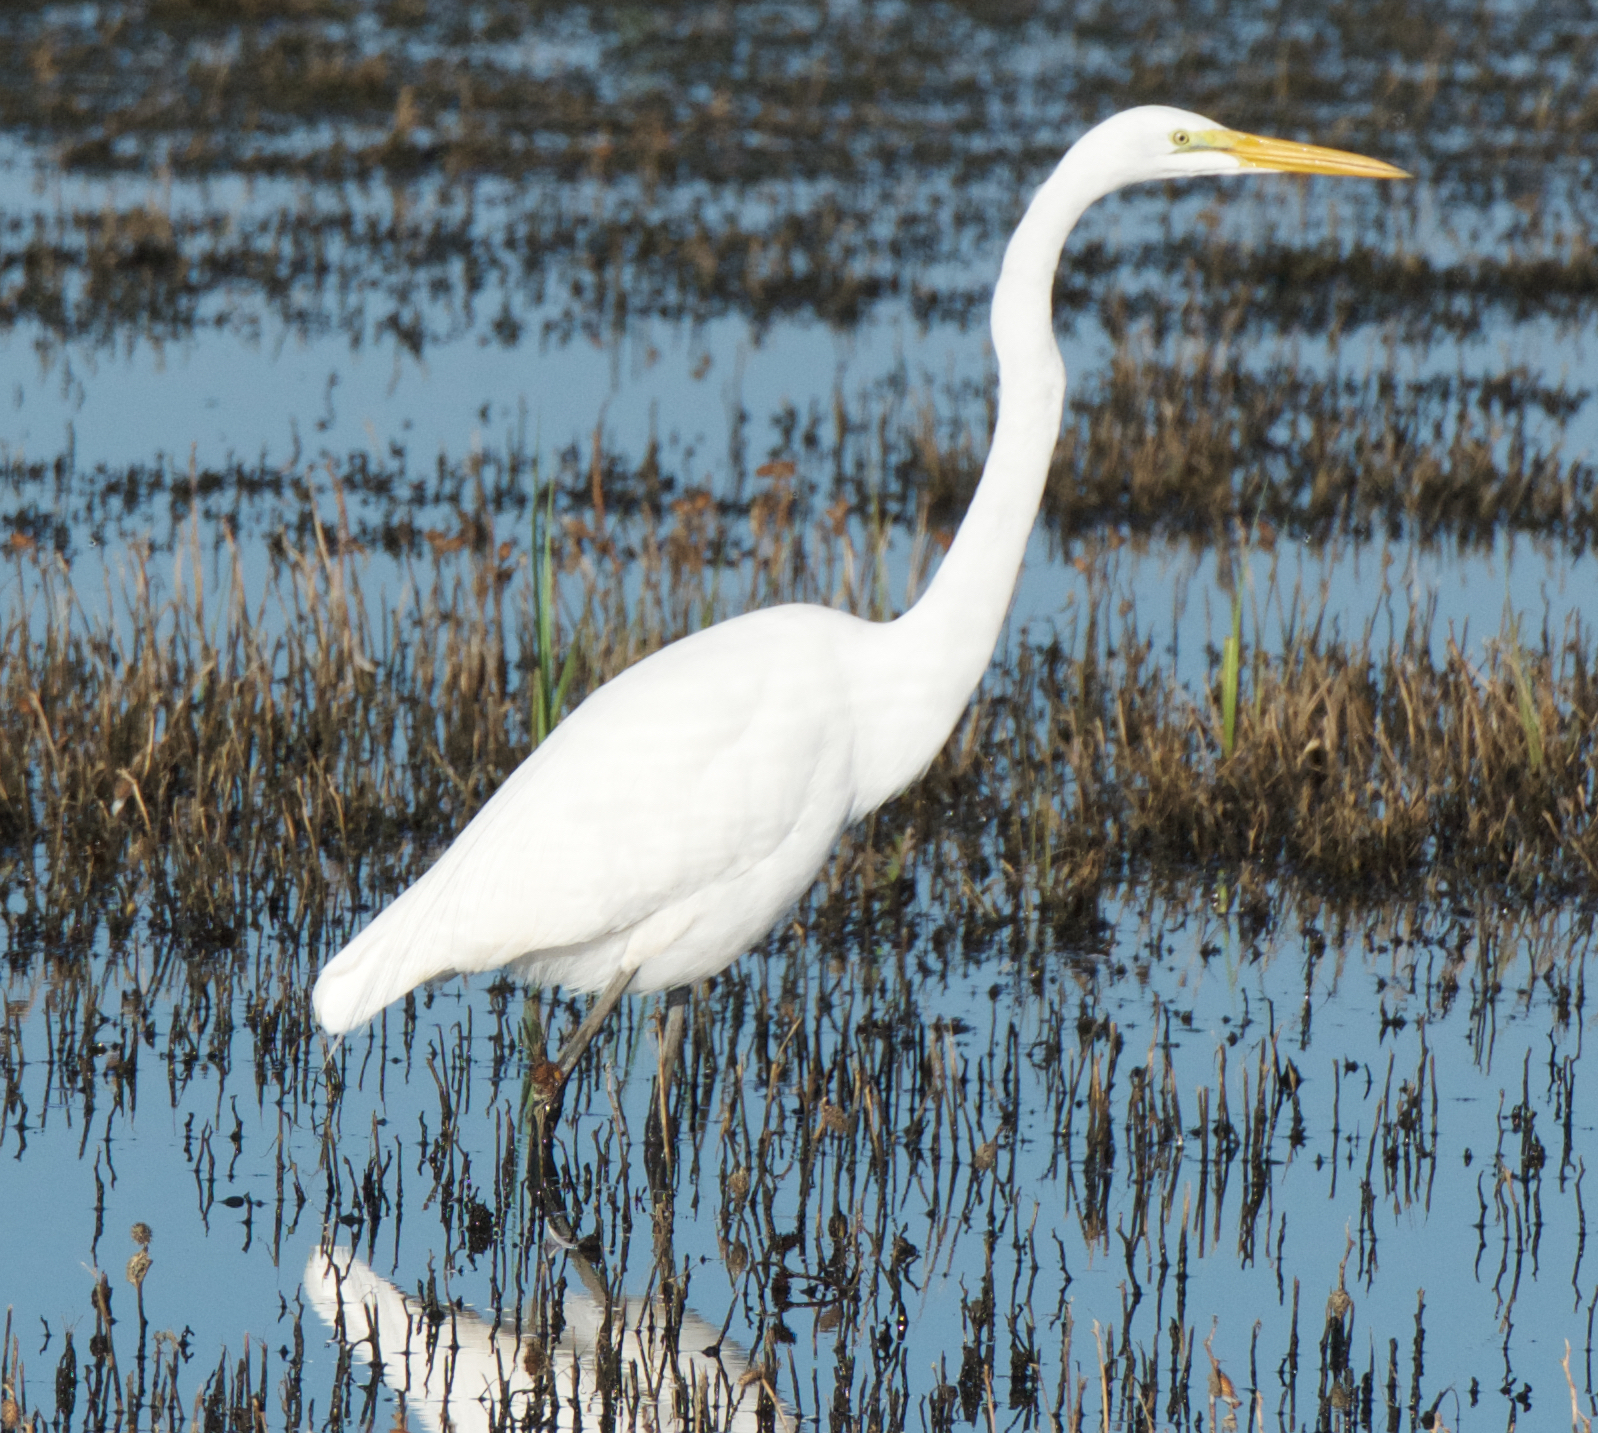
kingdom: Animalia
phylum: Chordata
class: Aves
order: Pelecaniformes
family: Ardeidae
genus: Ardea
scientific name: Ardea alba
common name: Great egret
